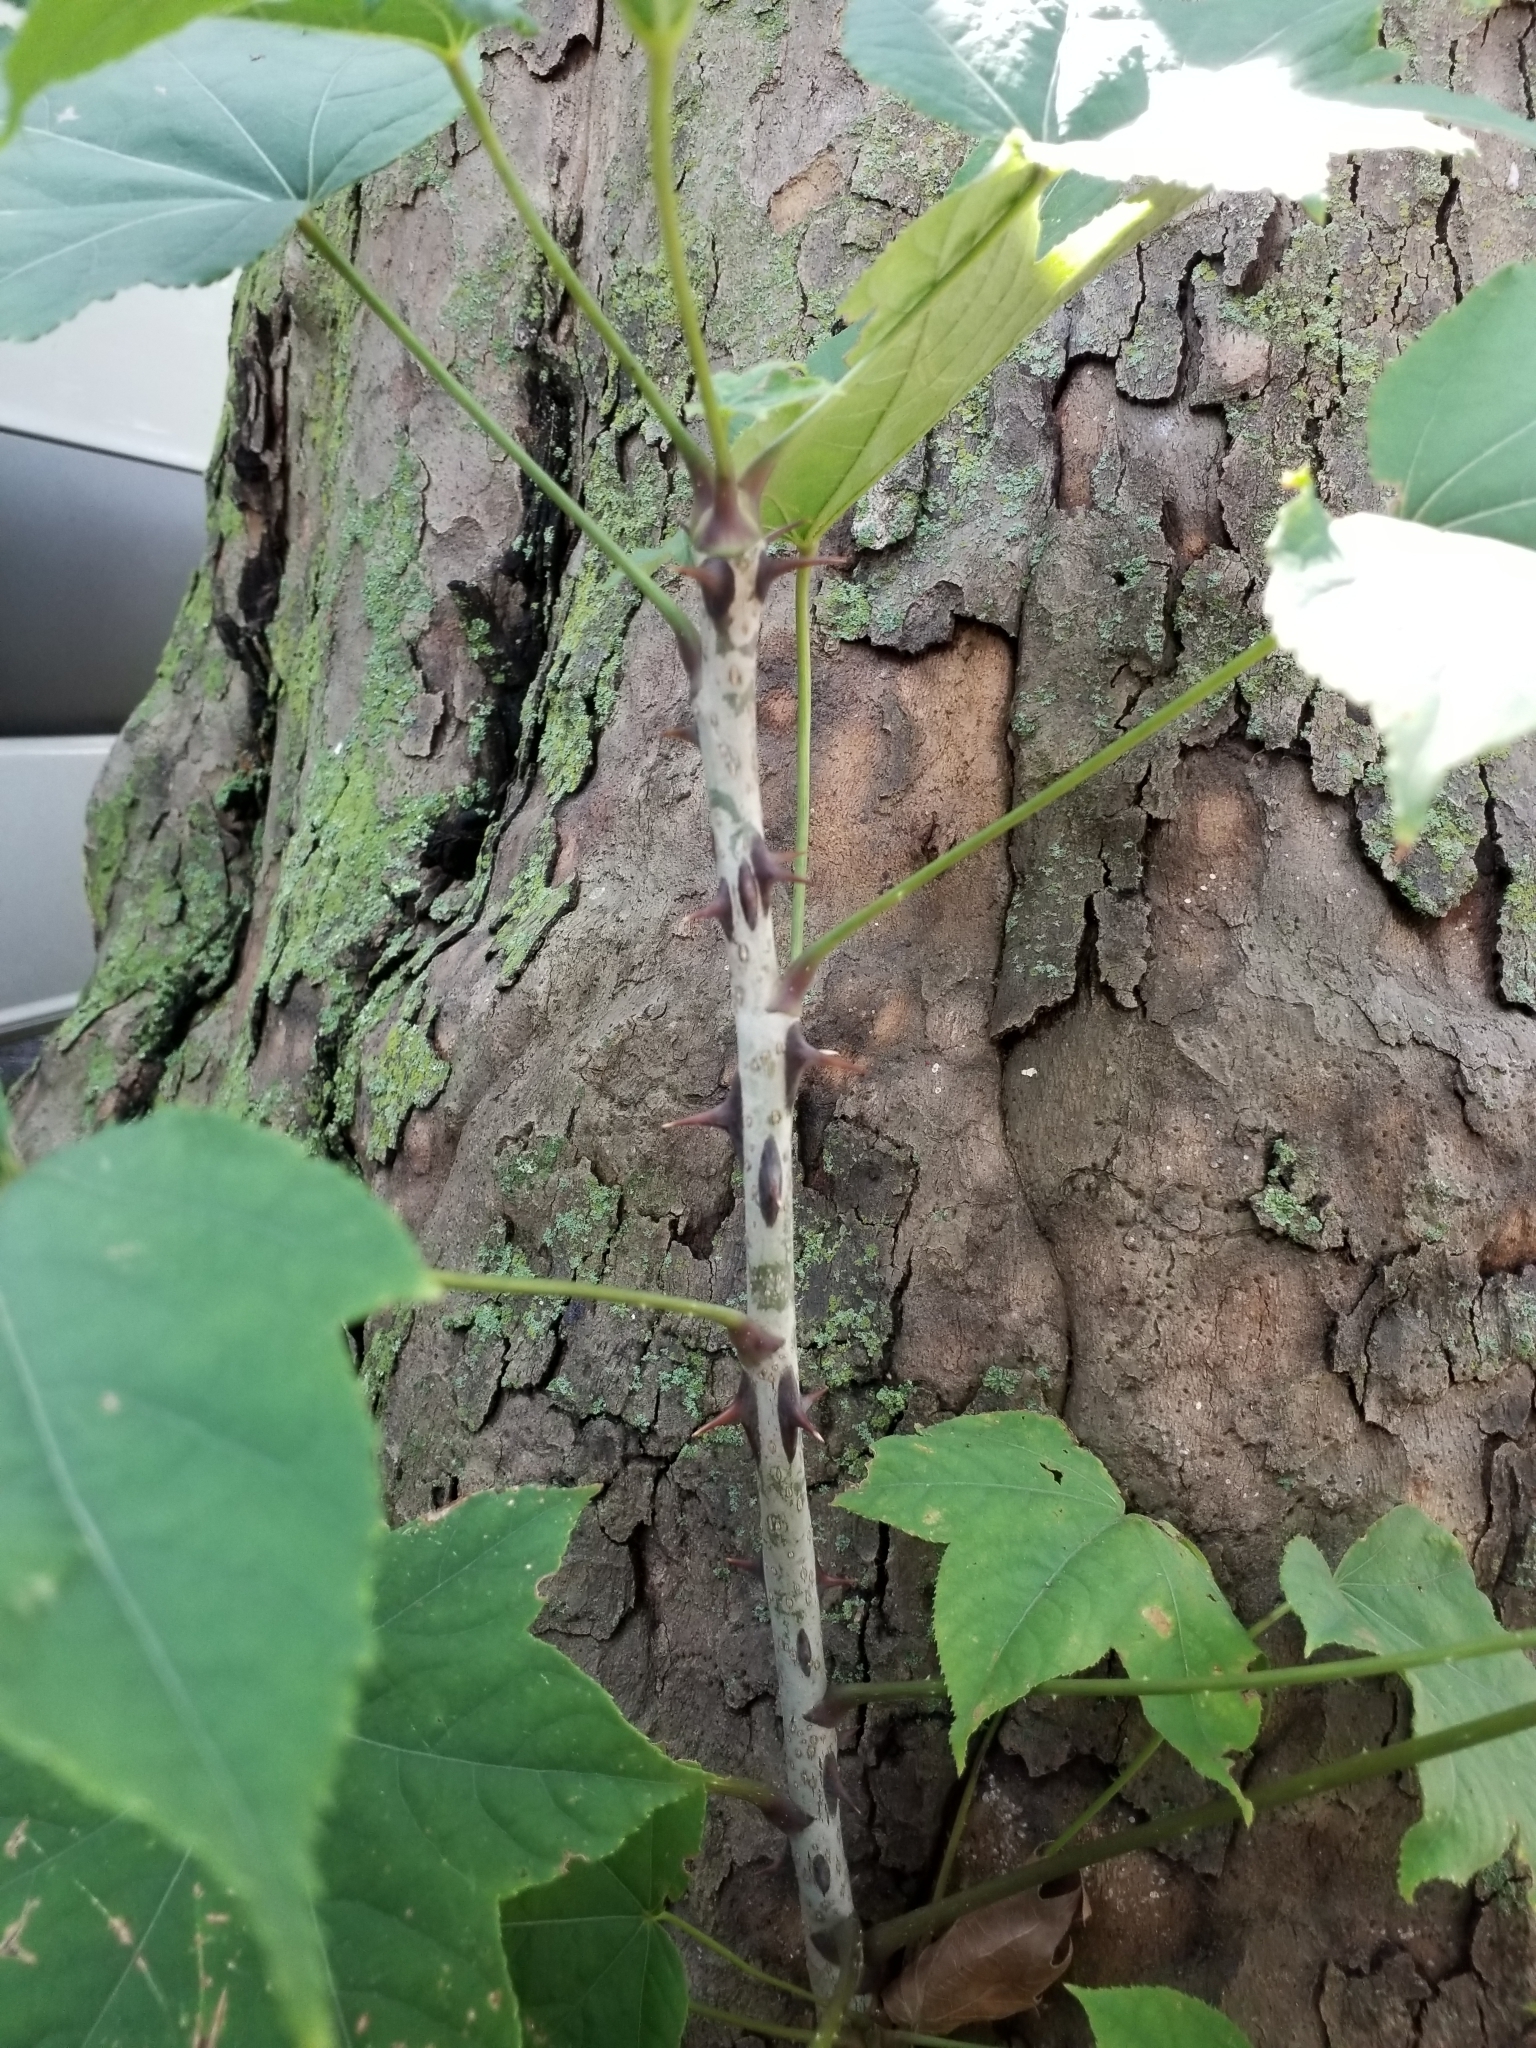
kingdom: Plantae
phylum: Tracheophyta
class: Magnoliopsida
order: Apiales
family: Araliaceae
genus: Kalopanax
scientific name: Kalopanax septemlobus
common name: Castor aralia
